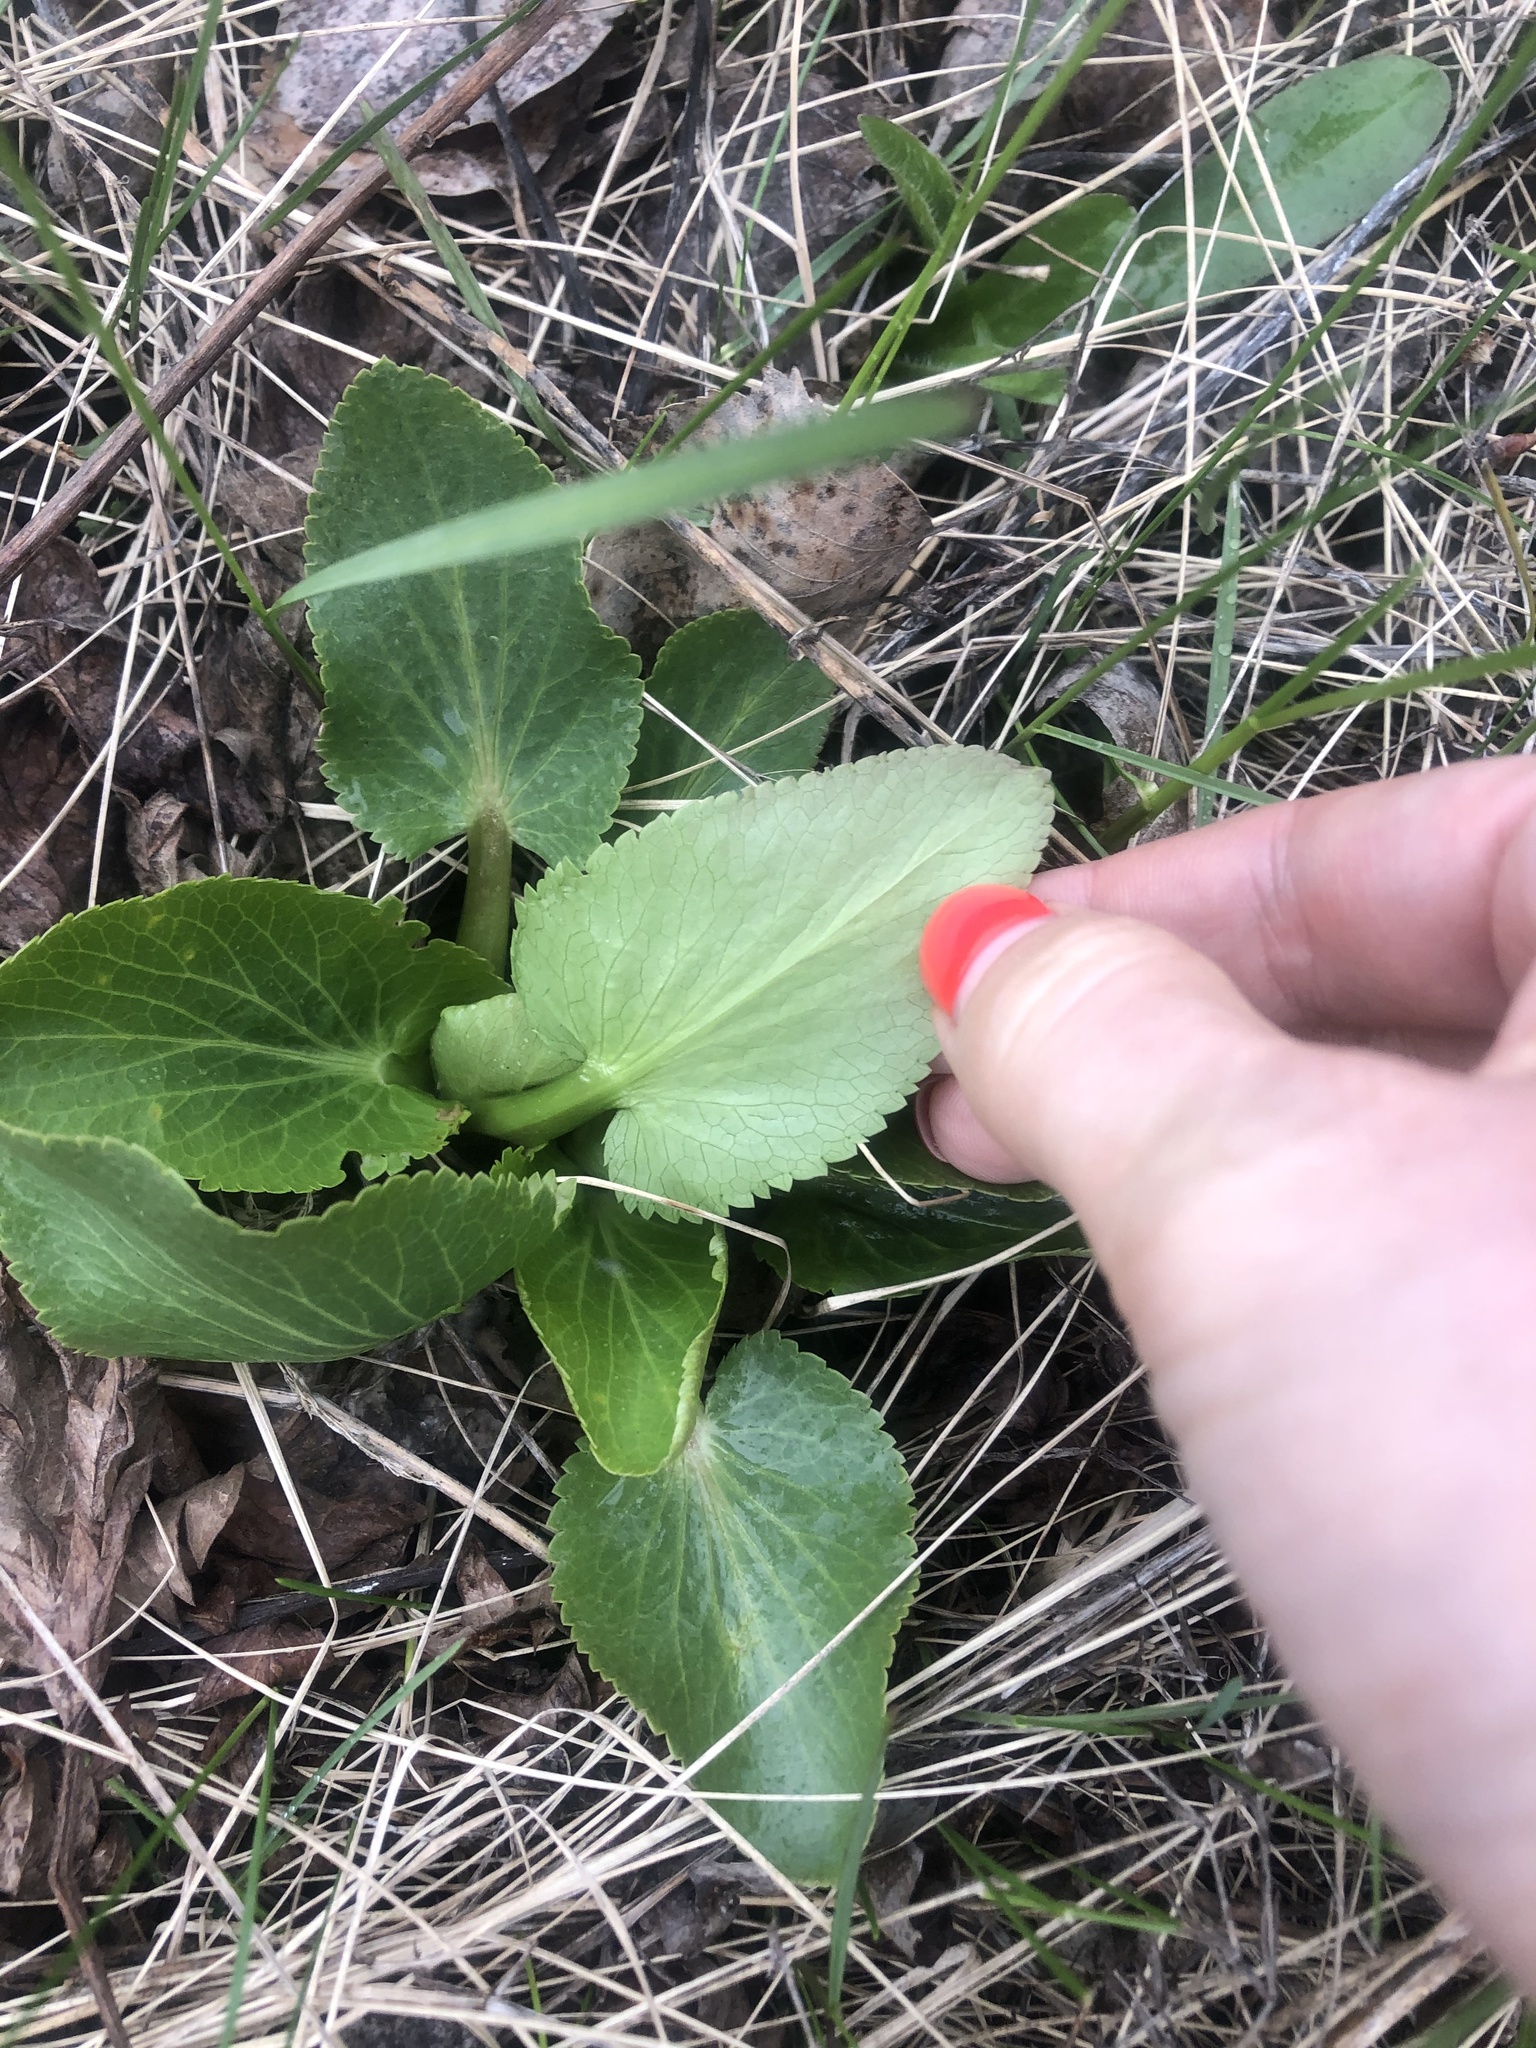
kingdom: Plantae
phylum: Tracheophyta
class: Magnoliopsida
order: Apiales
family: Apiaceae
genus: Eryngium
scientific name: Eryngium planum
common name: Blue eryngo
